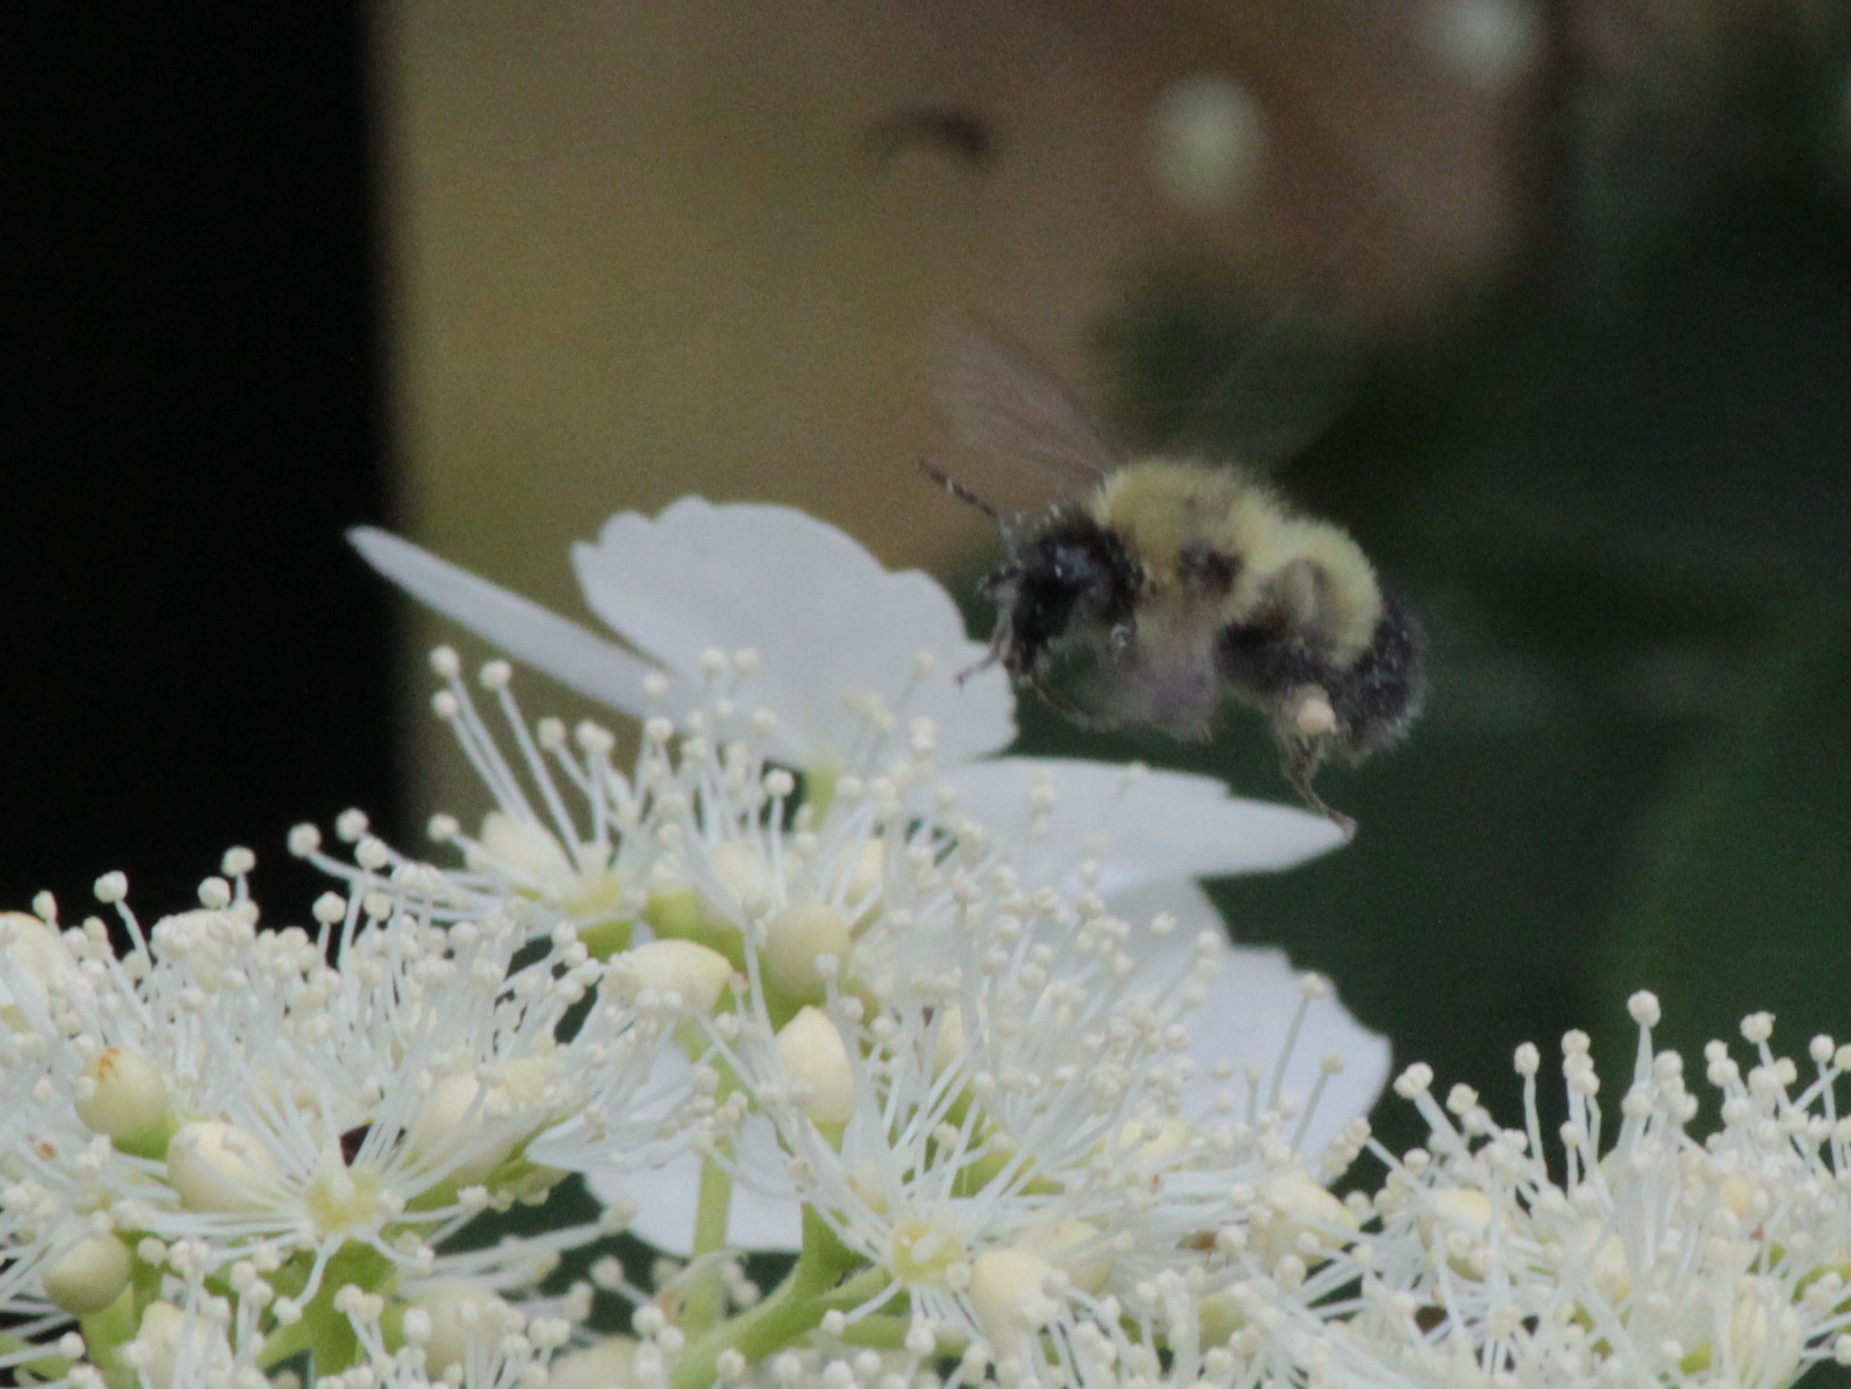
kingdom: Animalia
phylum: Arthropoda
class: Insecta
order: Hymenoptera
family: Apidae
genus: Pyrobombus
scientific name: Pyrobombus
